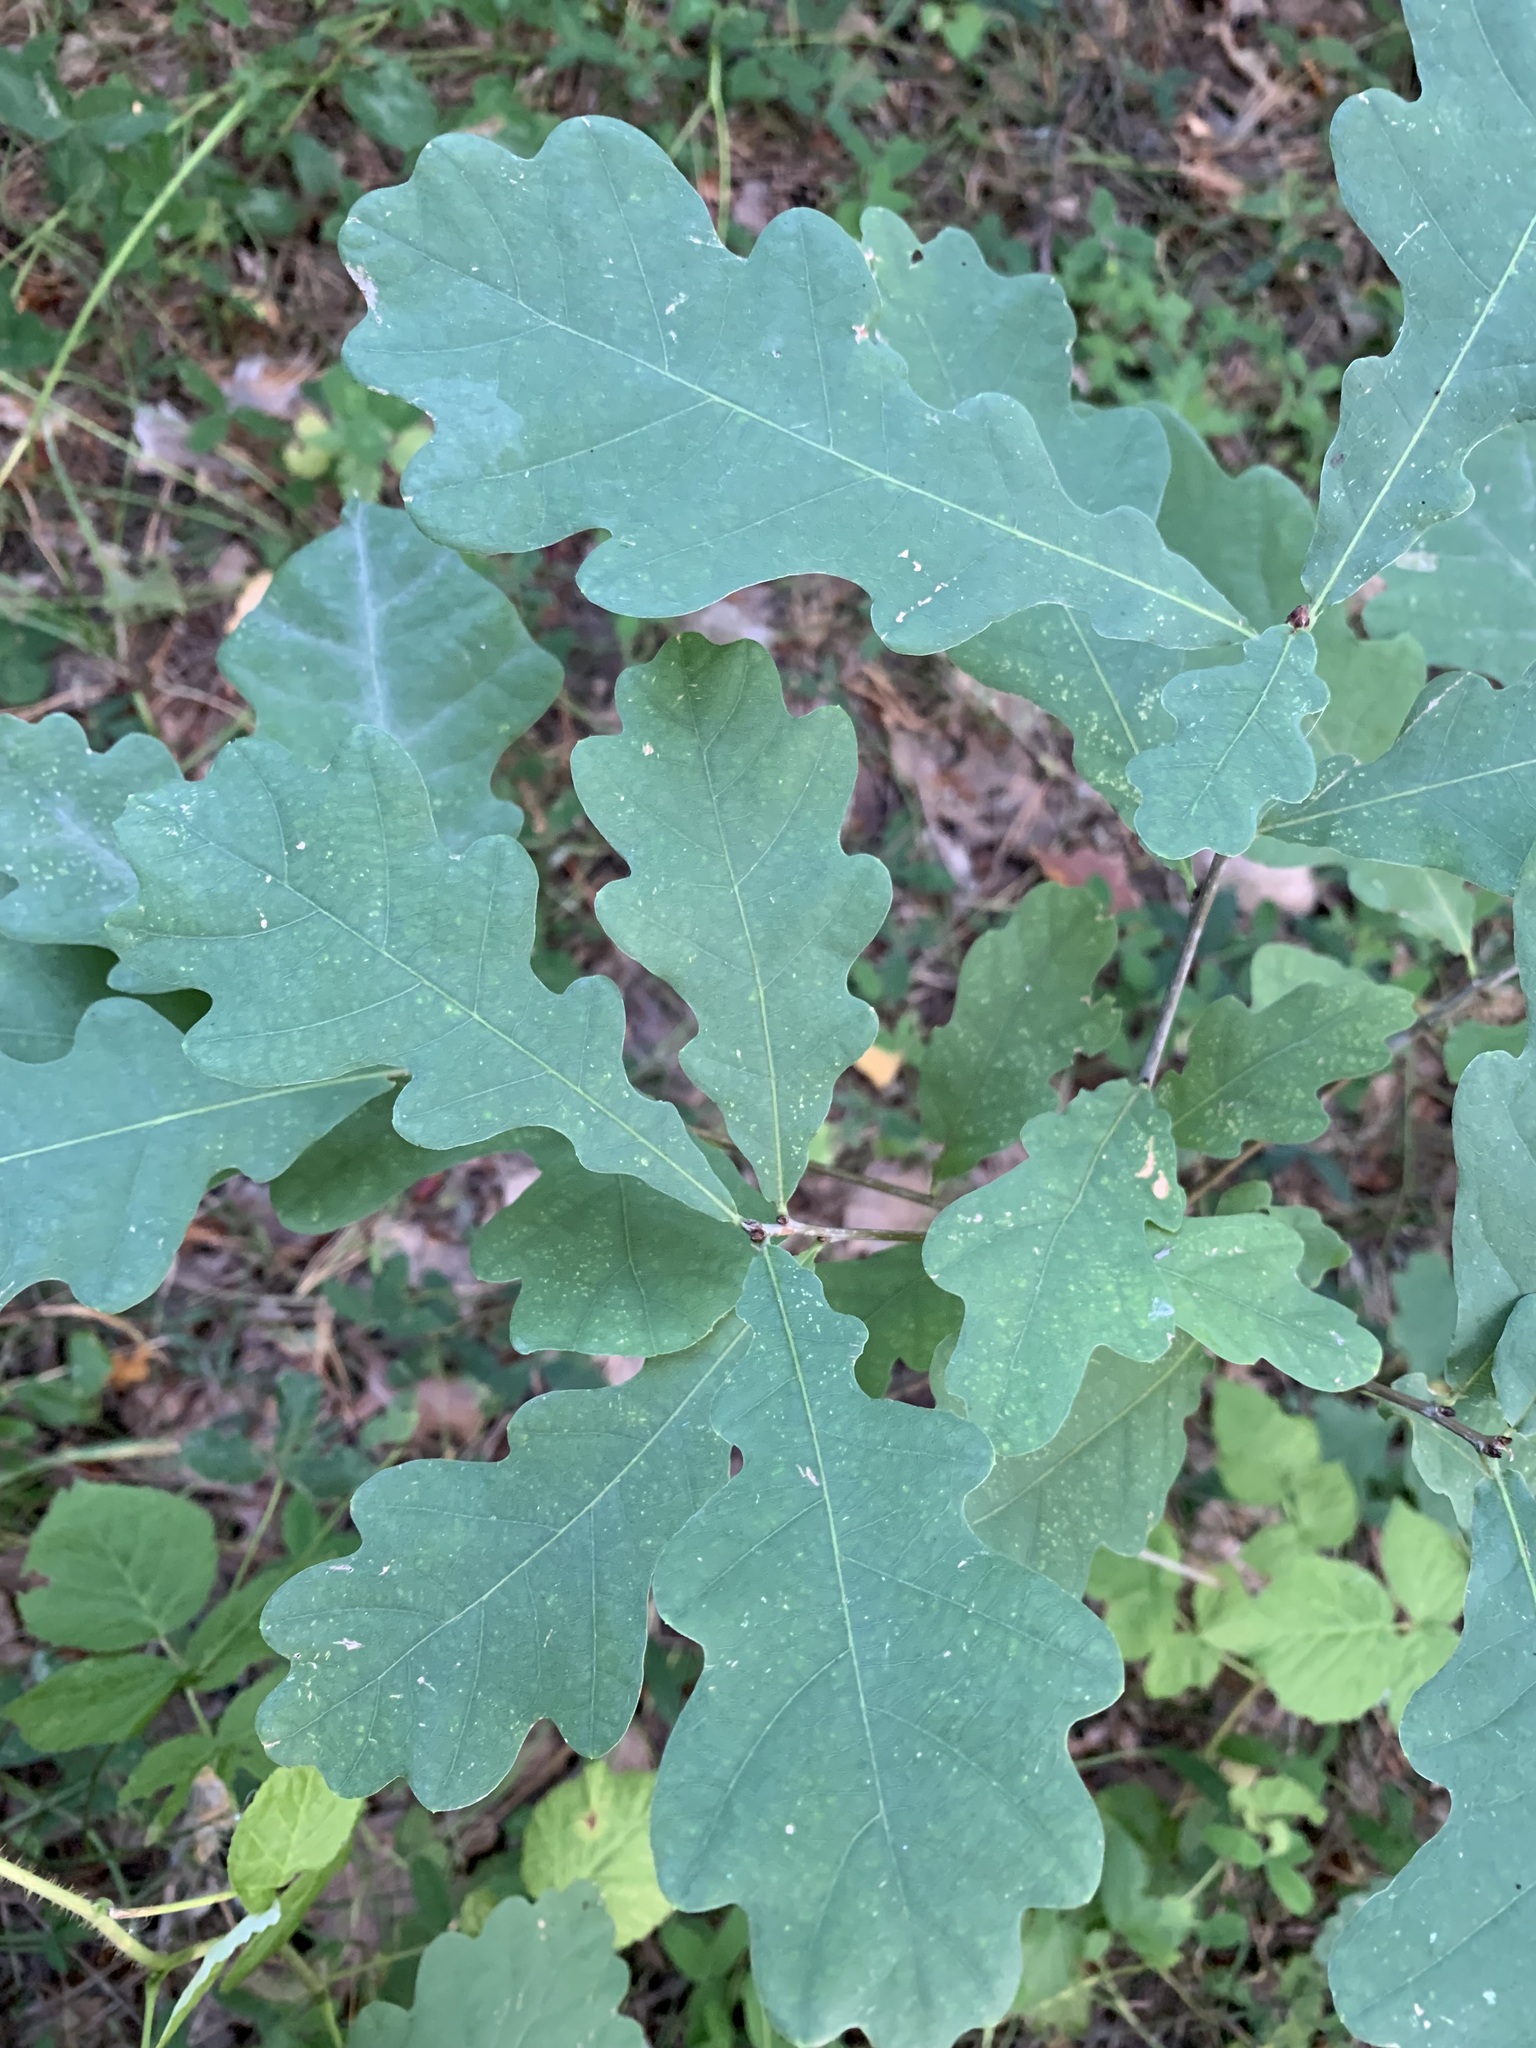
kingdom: Plantae
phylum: Tracheophyta
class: Magnoliopsida
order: Fagales
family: Fagaceae
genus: Quercus
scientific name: Quercus robur
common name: Pedunculate oak
